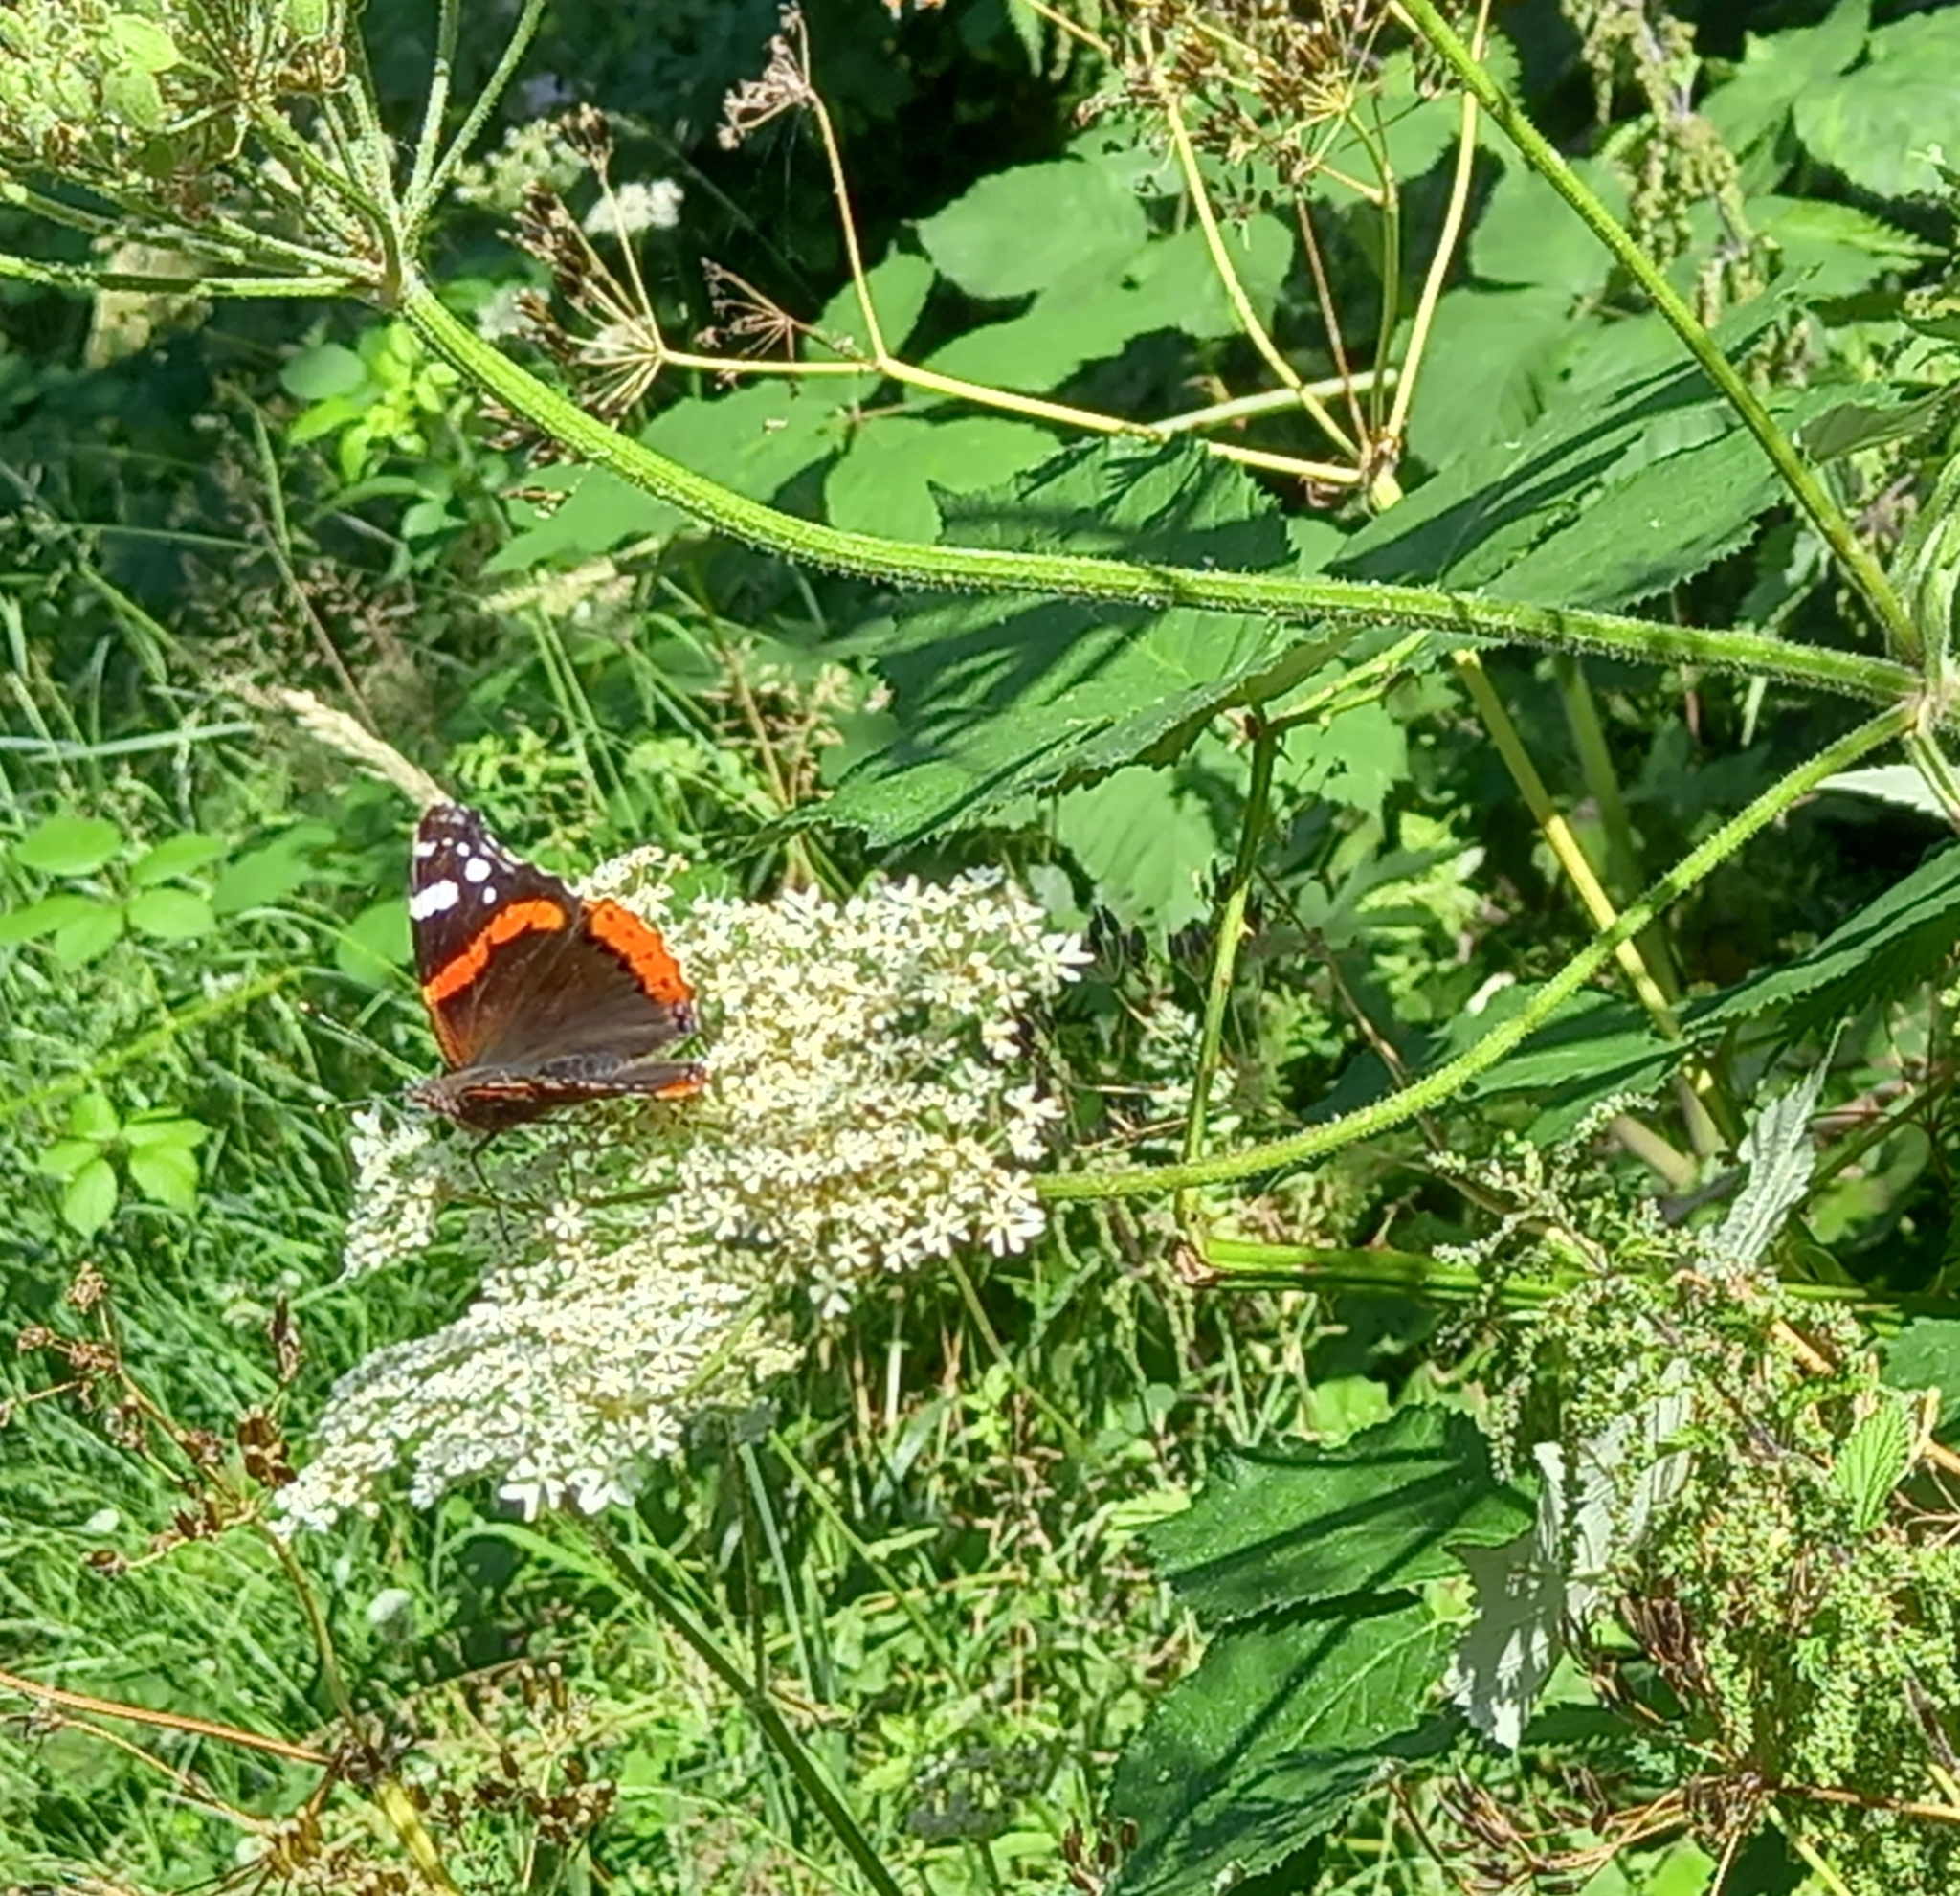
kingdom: Animalia
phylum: Arthropoda
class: Insecta
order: Lepidoptera
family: Nymphalidae
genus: Vanessa
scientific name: Vanessa atalanta
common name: Red admiral
